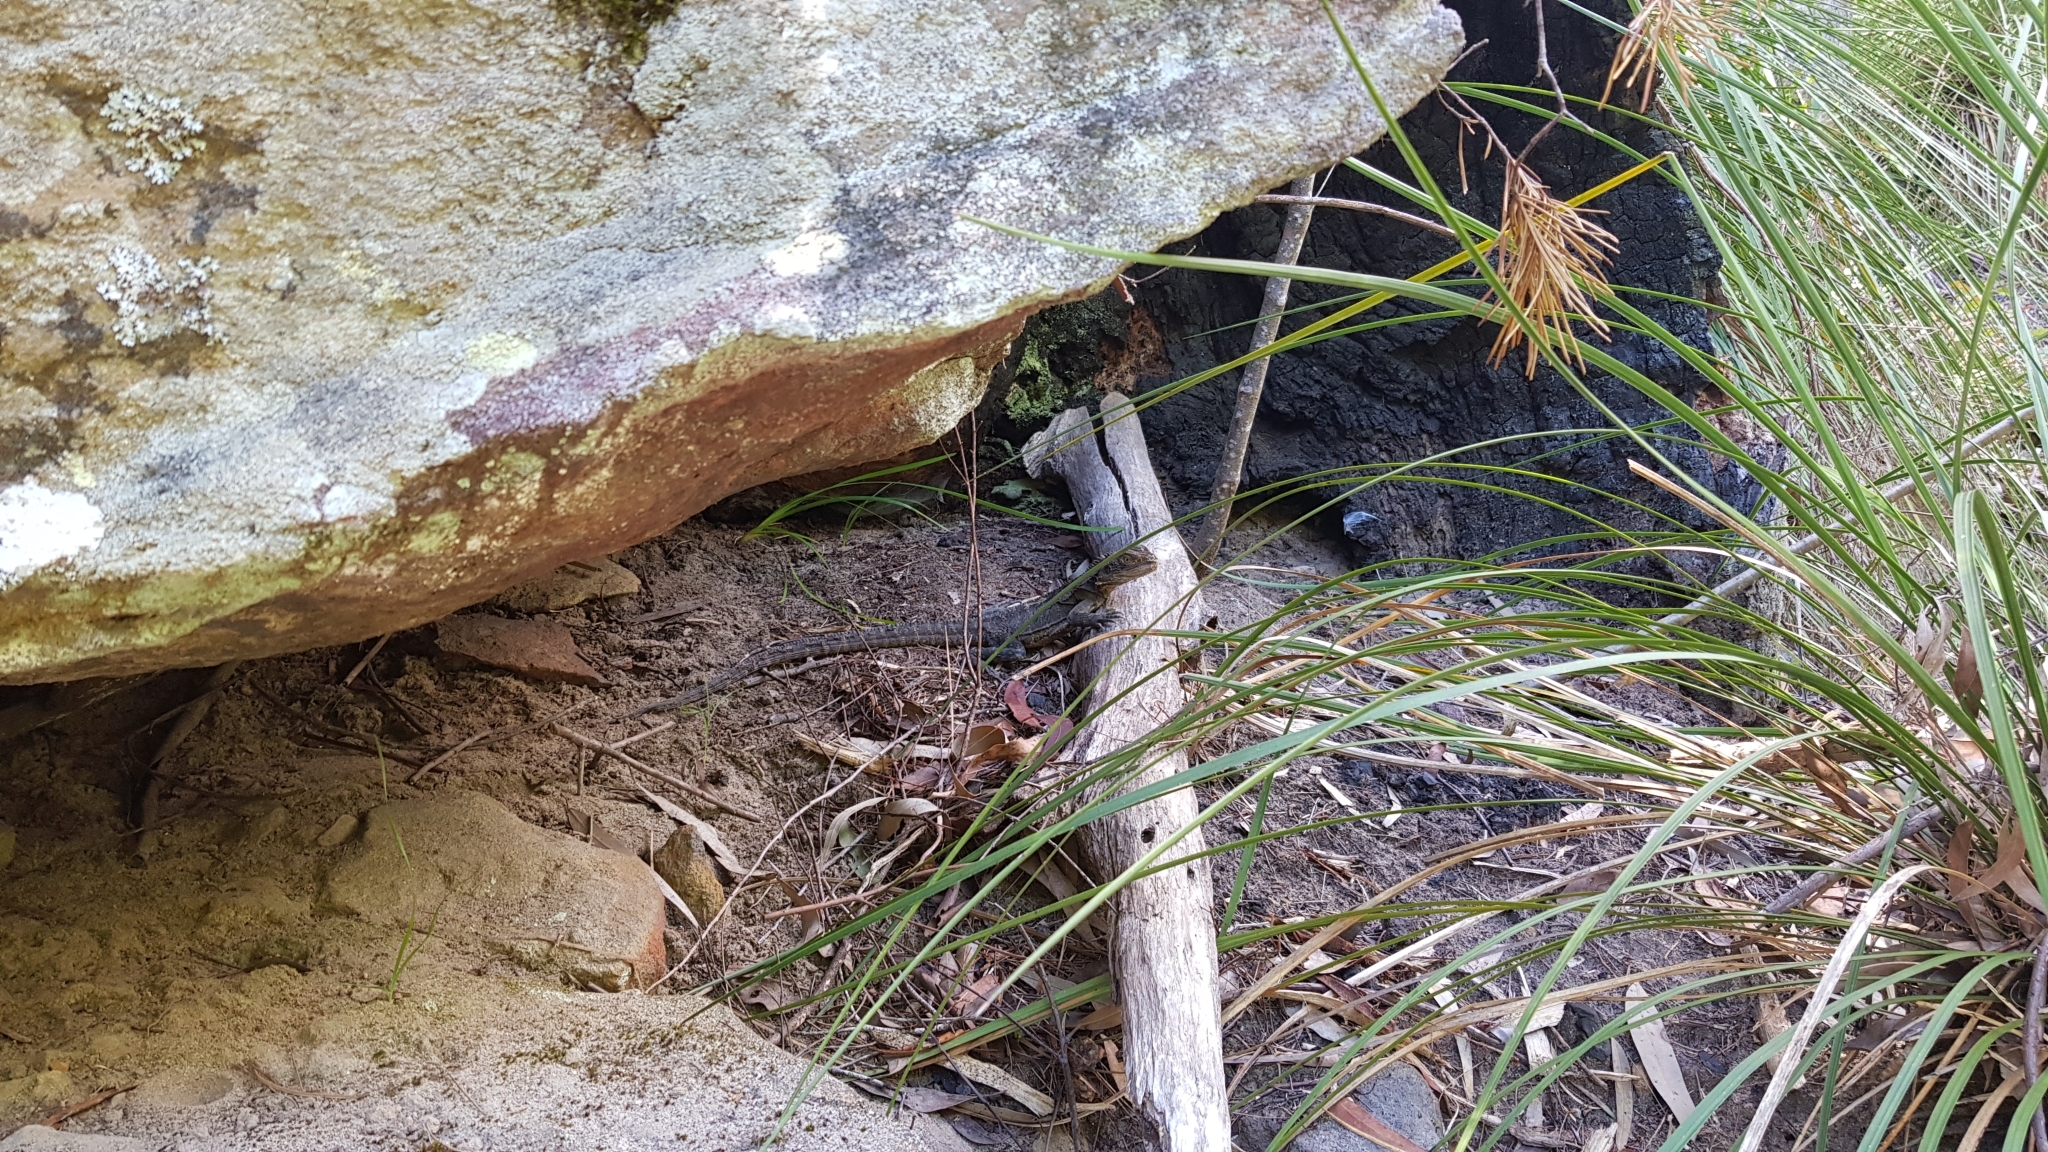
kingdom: Animalia
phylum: Chordata
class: Squamata
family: Agamidae
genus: Intellagama
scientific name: Intellagama lesueurii
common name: Eastern water dragon
